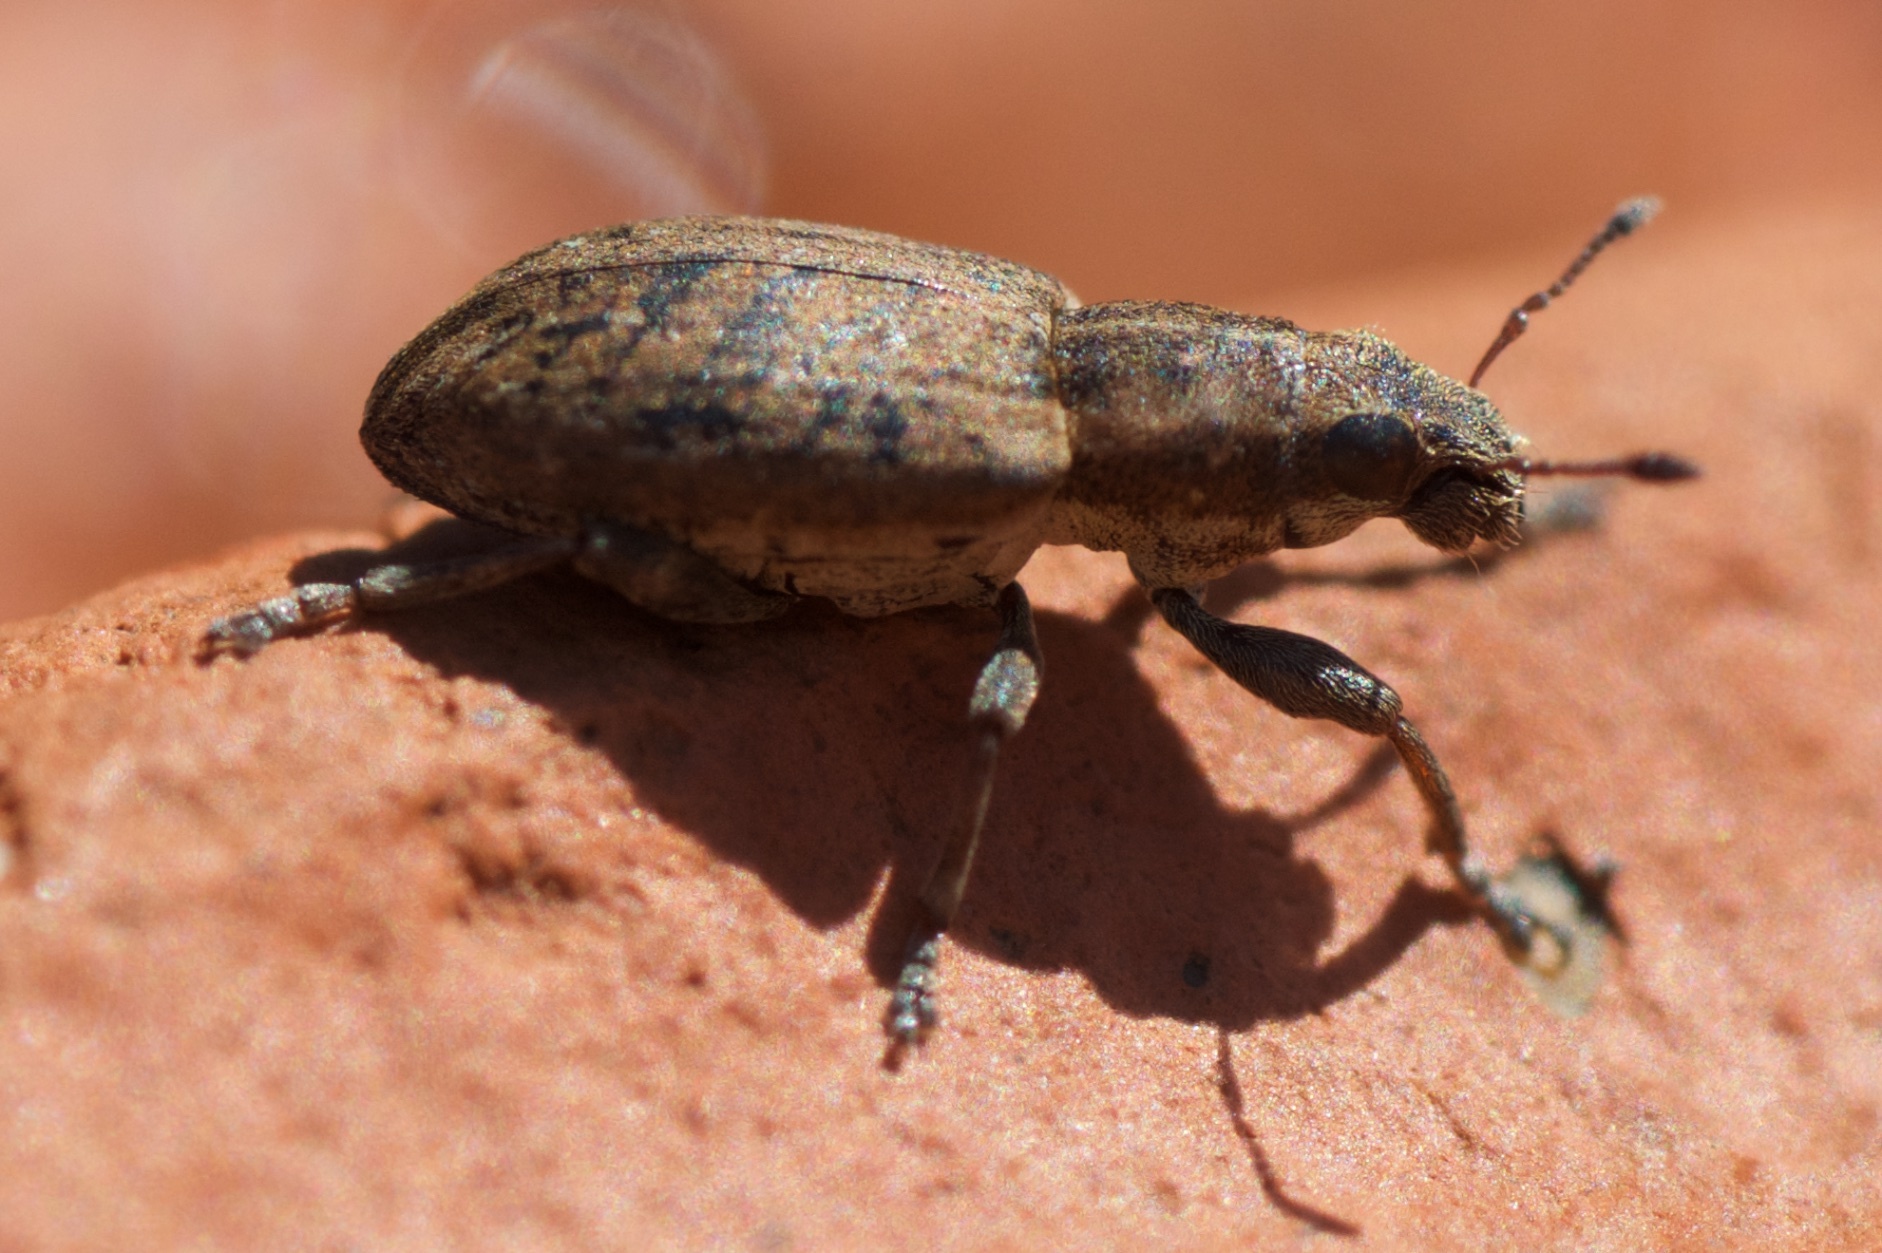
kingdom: Animalia
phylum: Arthropoda
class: Insecta
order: Coleoptera
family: Curculionidae
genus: Sitona
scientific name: Sitona obsoletus
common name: Weevil
